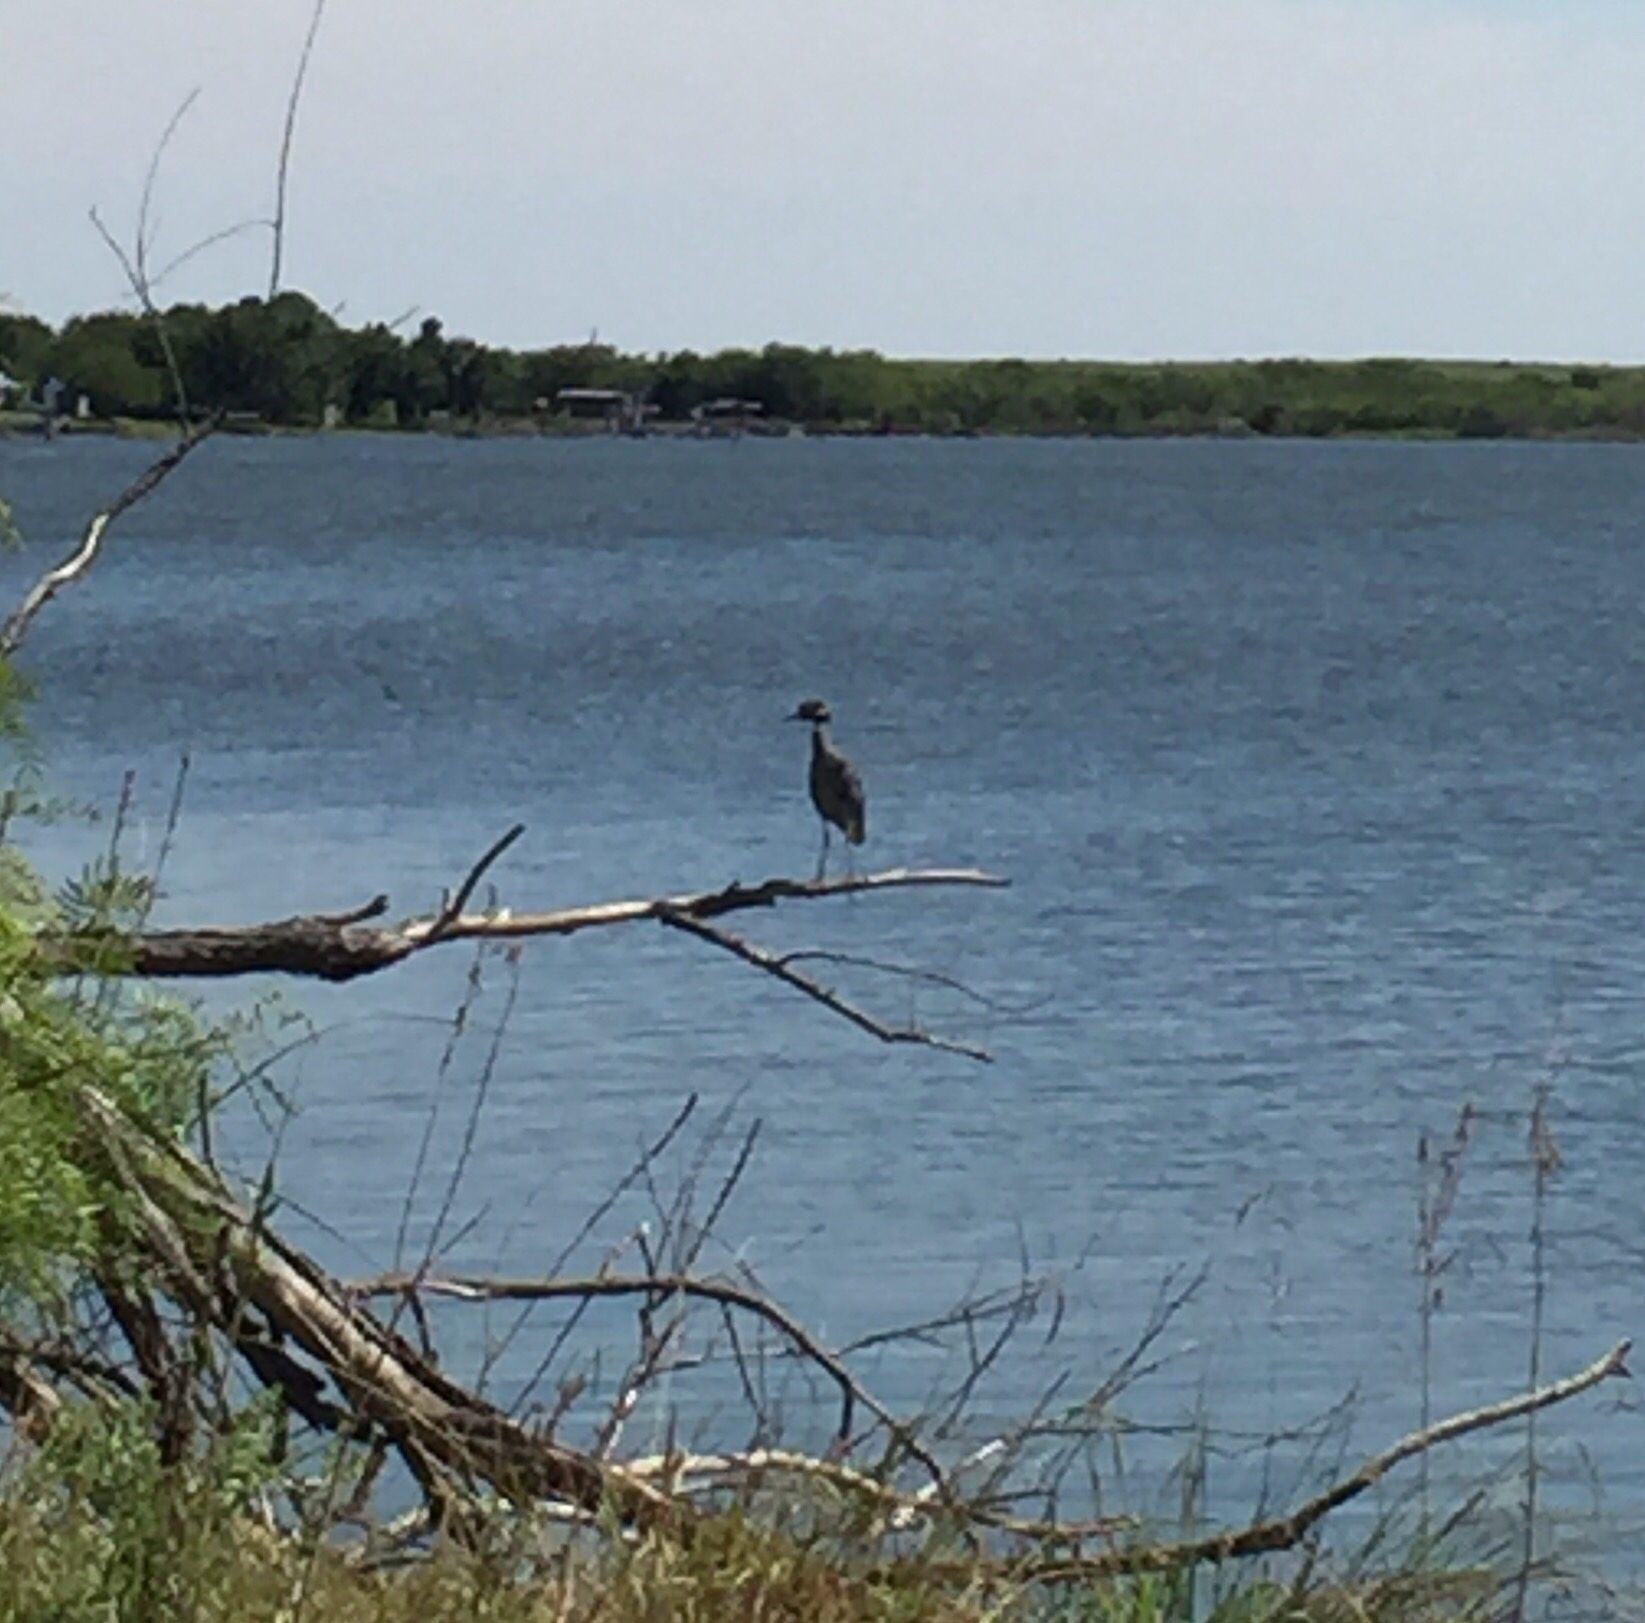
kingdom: Animalia
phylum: Chordata
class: Aves
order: Pelecaniformes
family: Ardeidae
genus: Nyctanassa
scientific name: Nyctanassa violacea
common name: Yellow-crowned night heron
